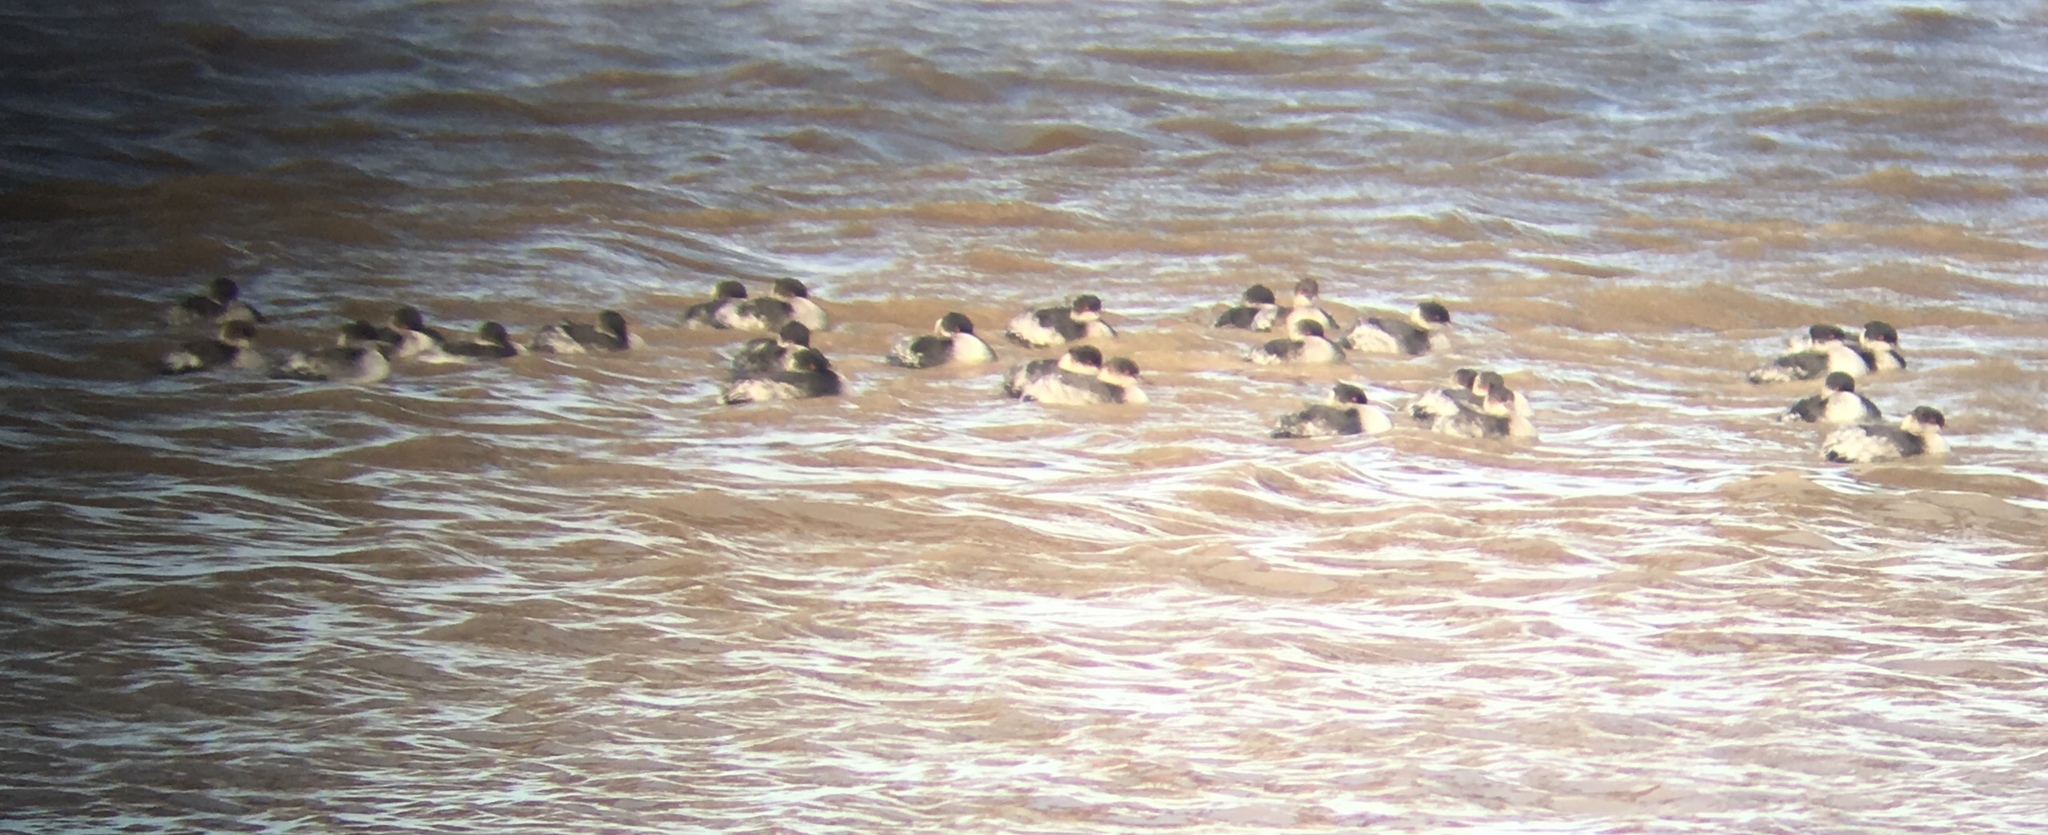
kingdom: Animalia
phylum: Chordata
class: Aves
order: Podicipediformes
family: Podicipedidae
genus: Podiceps
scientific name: Podiceps nigricollis
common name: Black-necked grebe
